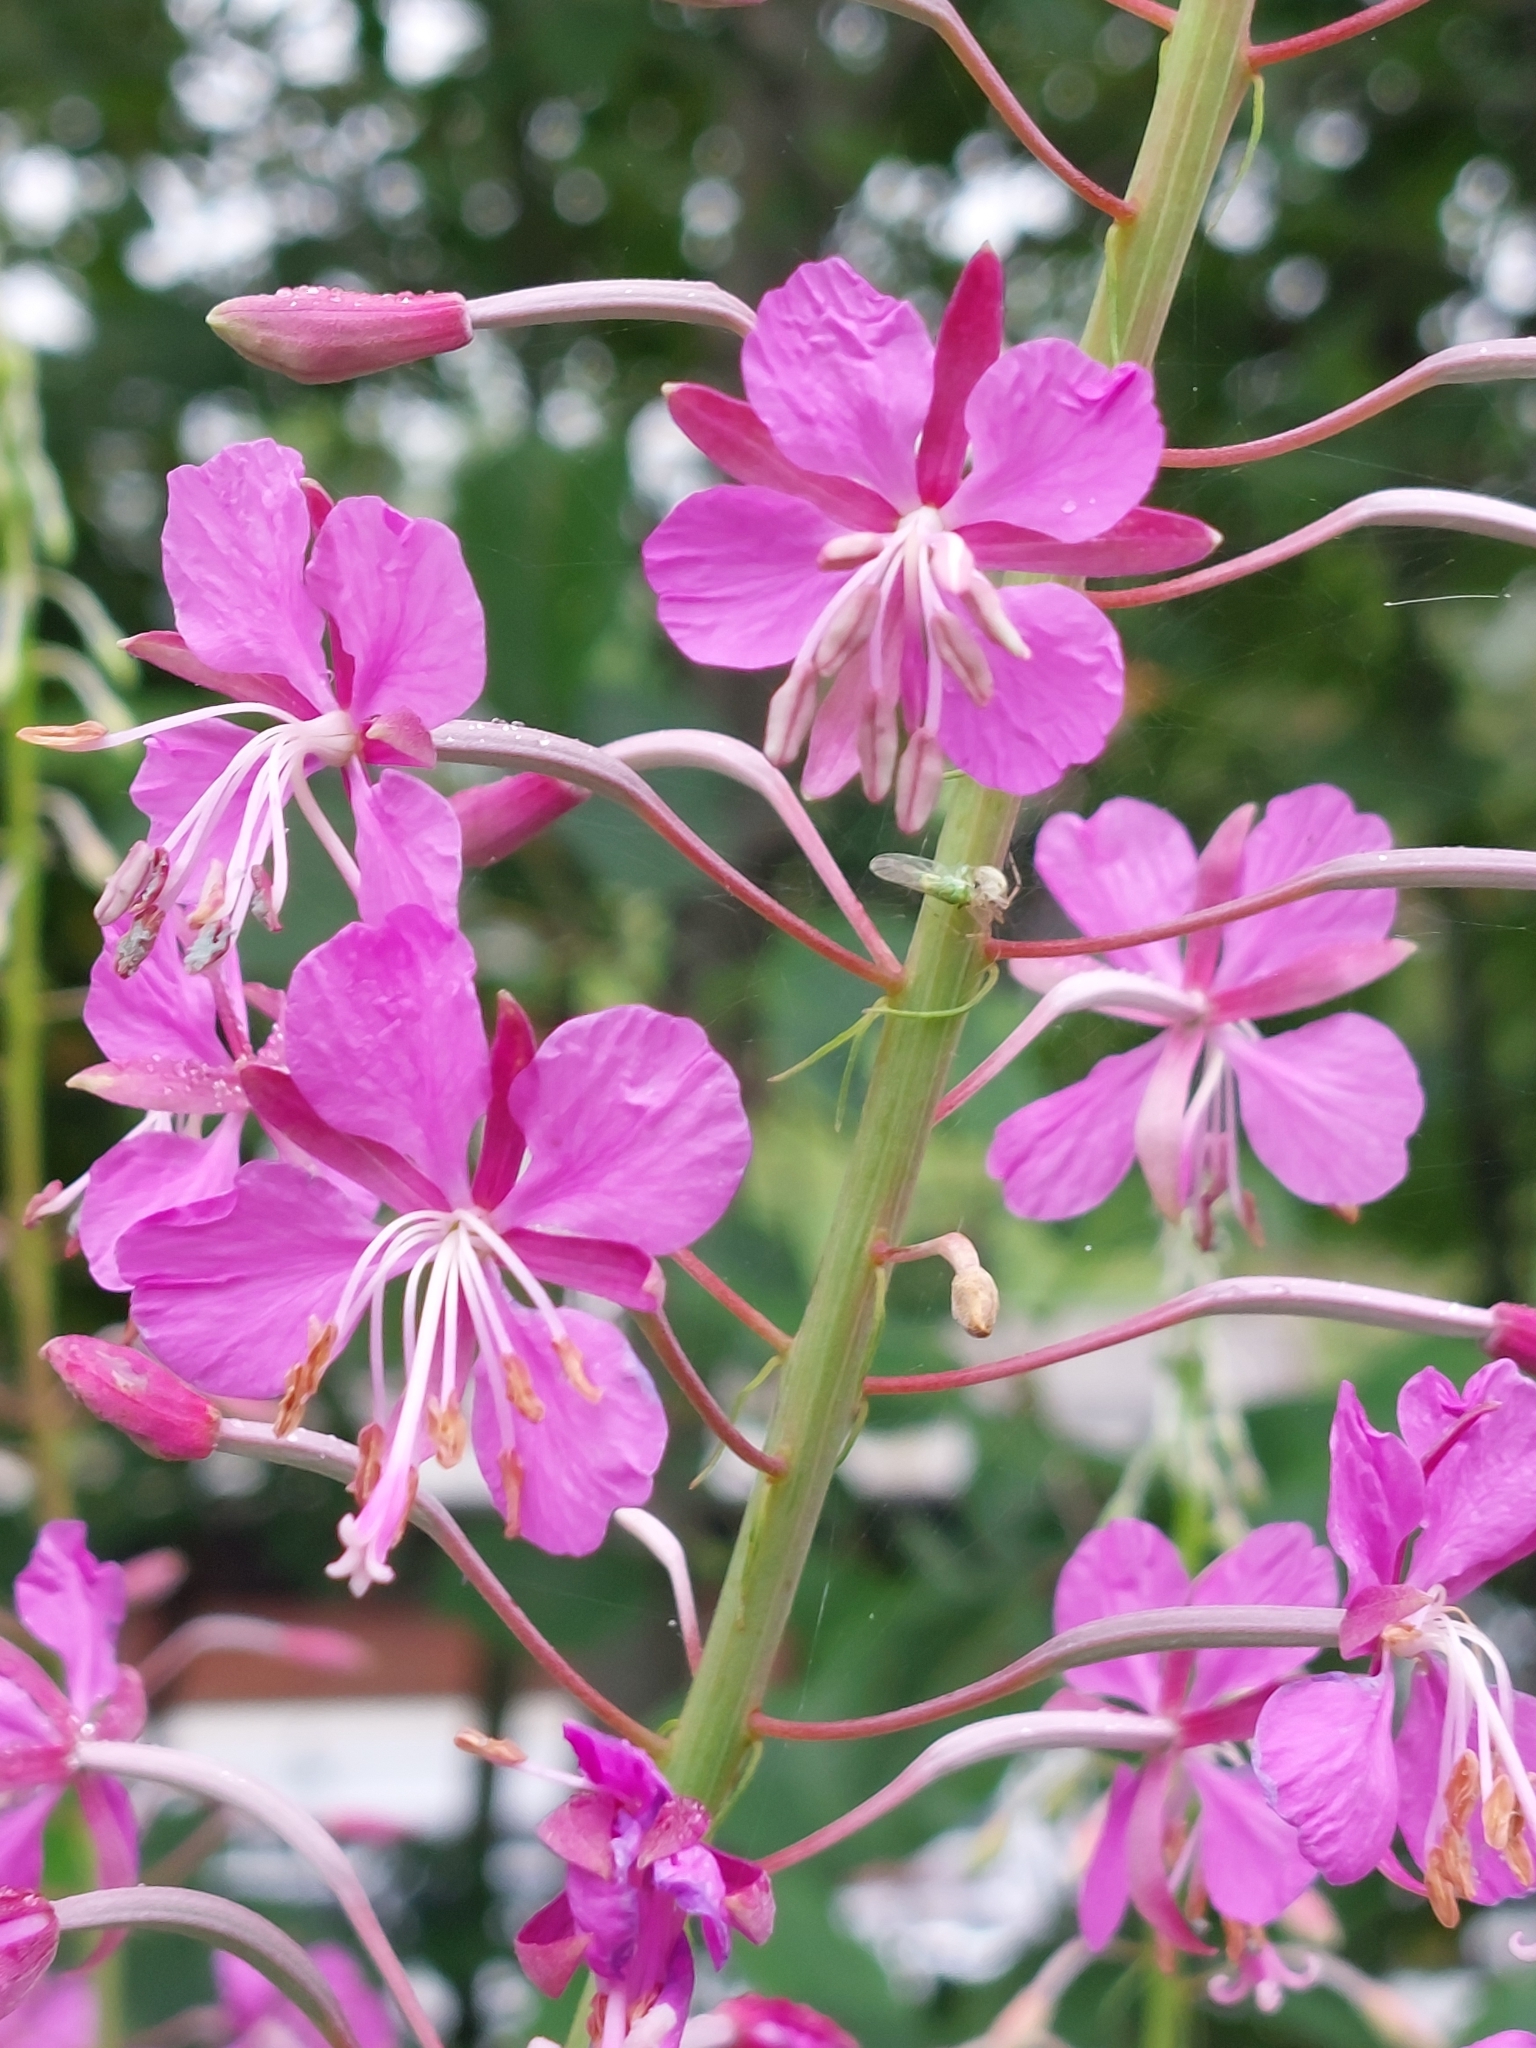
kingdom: Plantae
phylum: Tracheophyta
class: Magnoliopsida
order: Myrtales
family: Onagraceae
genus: Chamaenerion
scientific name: Chamaenerion angustifolium
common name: Fireweed
